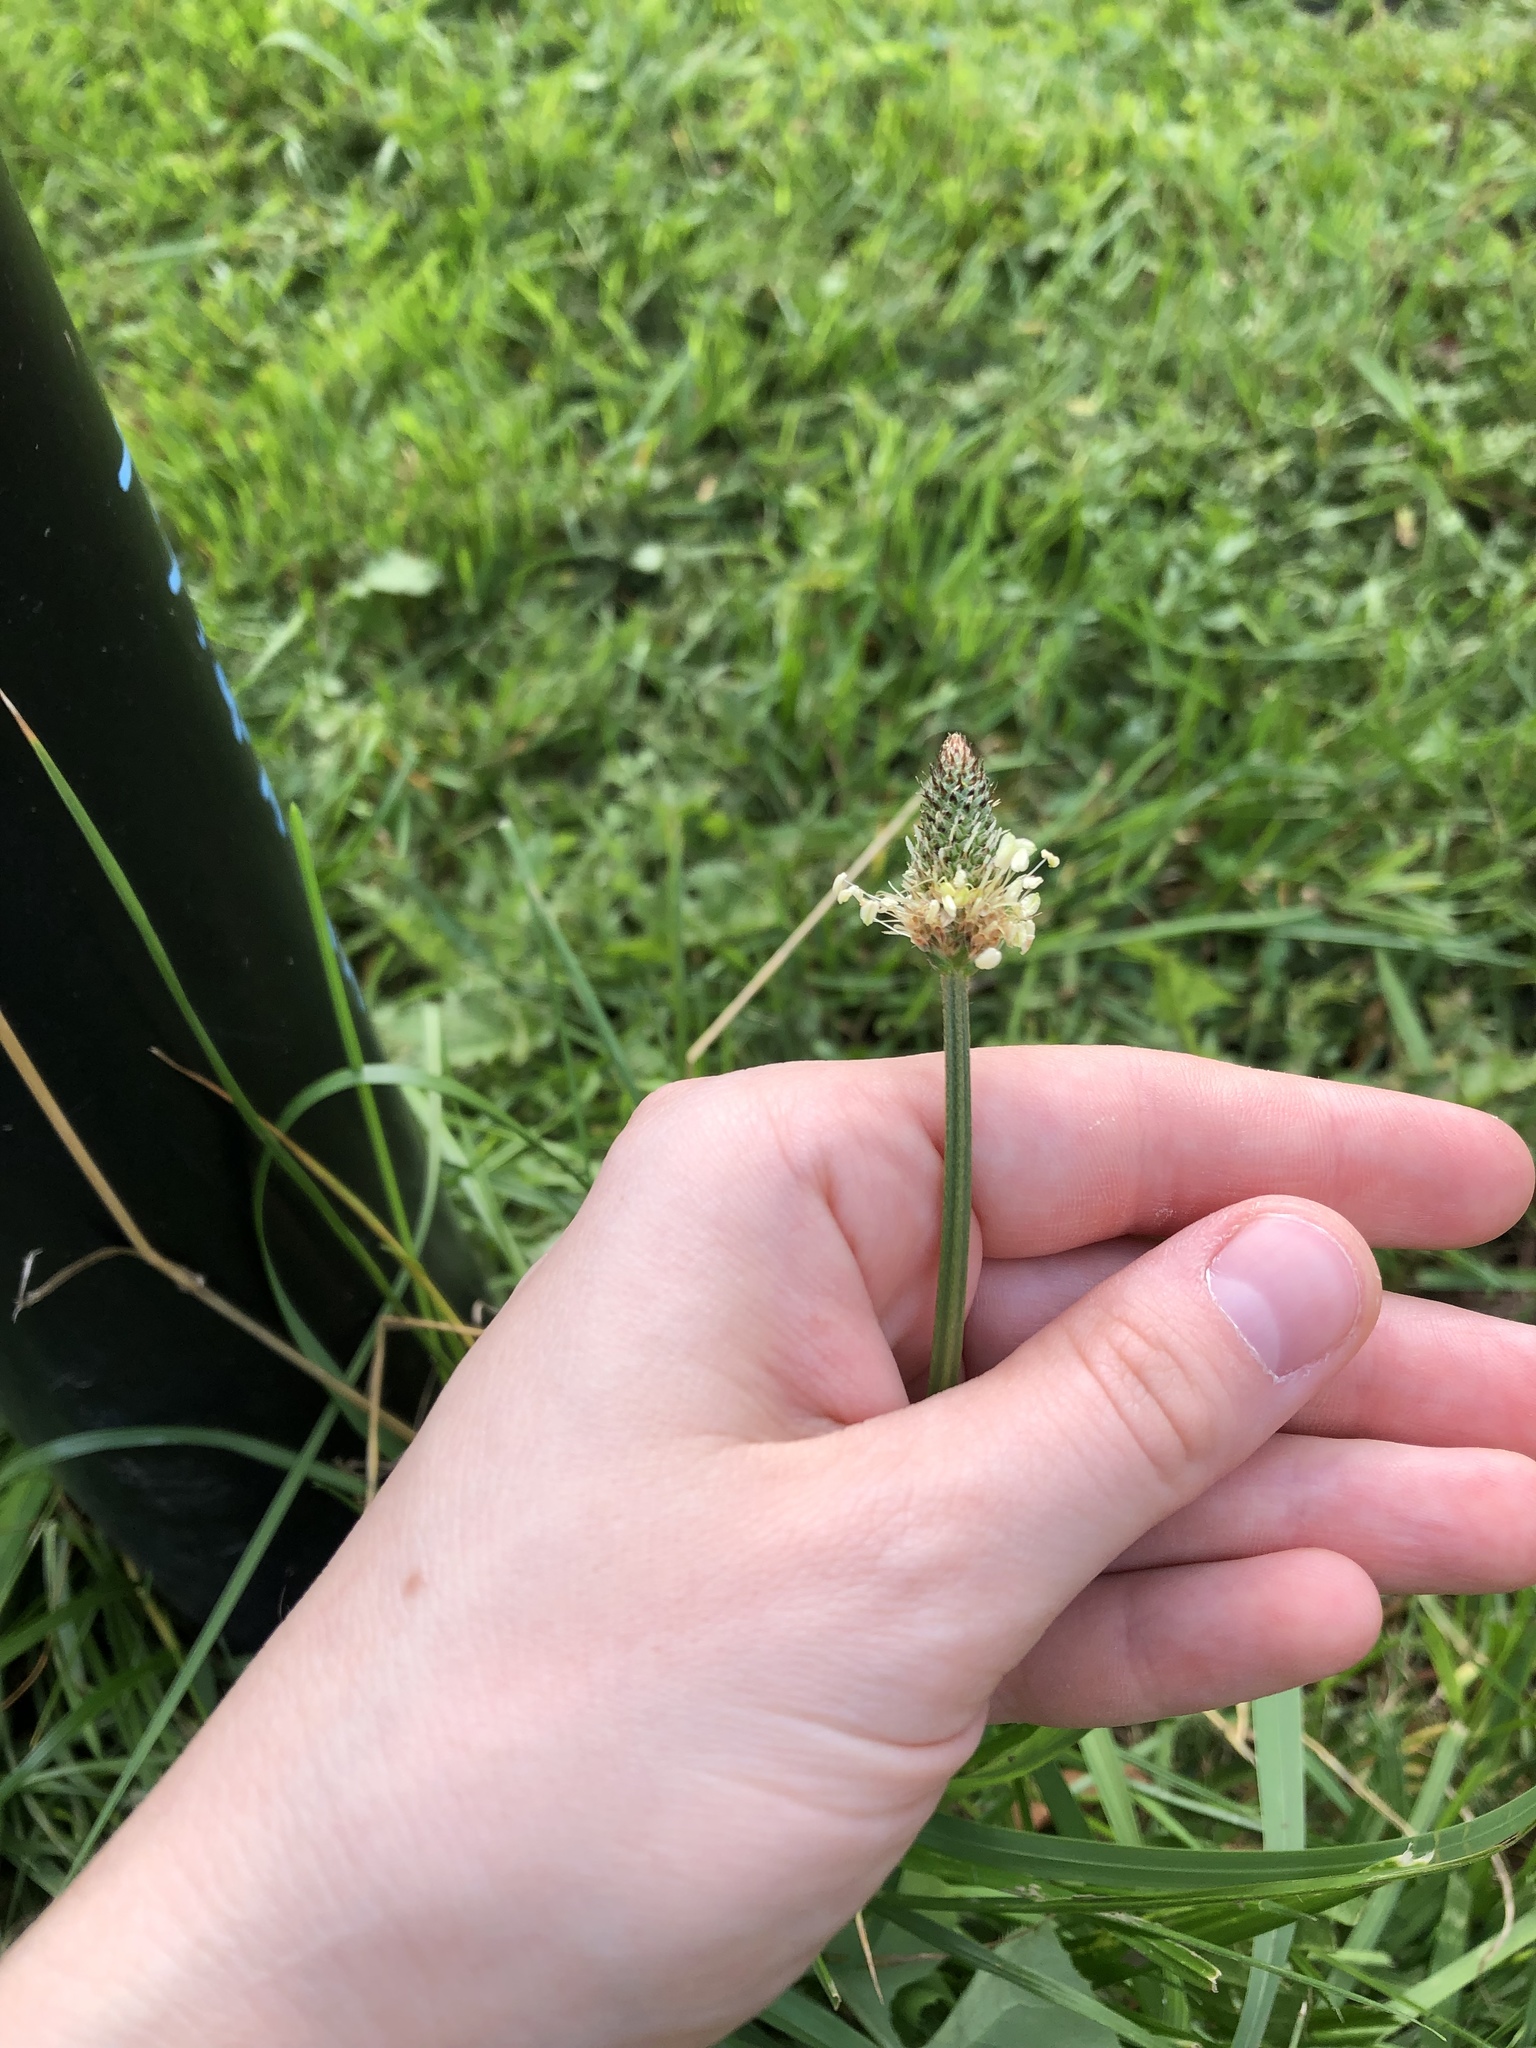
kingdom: Plantae
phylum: Tracheophyta
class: Magnoliopsida
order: Lamiales
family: Plantaginaceae
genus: Plantago
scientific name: Plantago lanceolata
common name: Ribwort plantain
